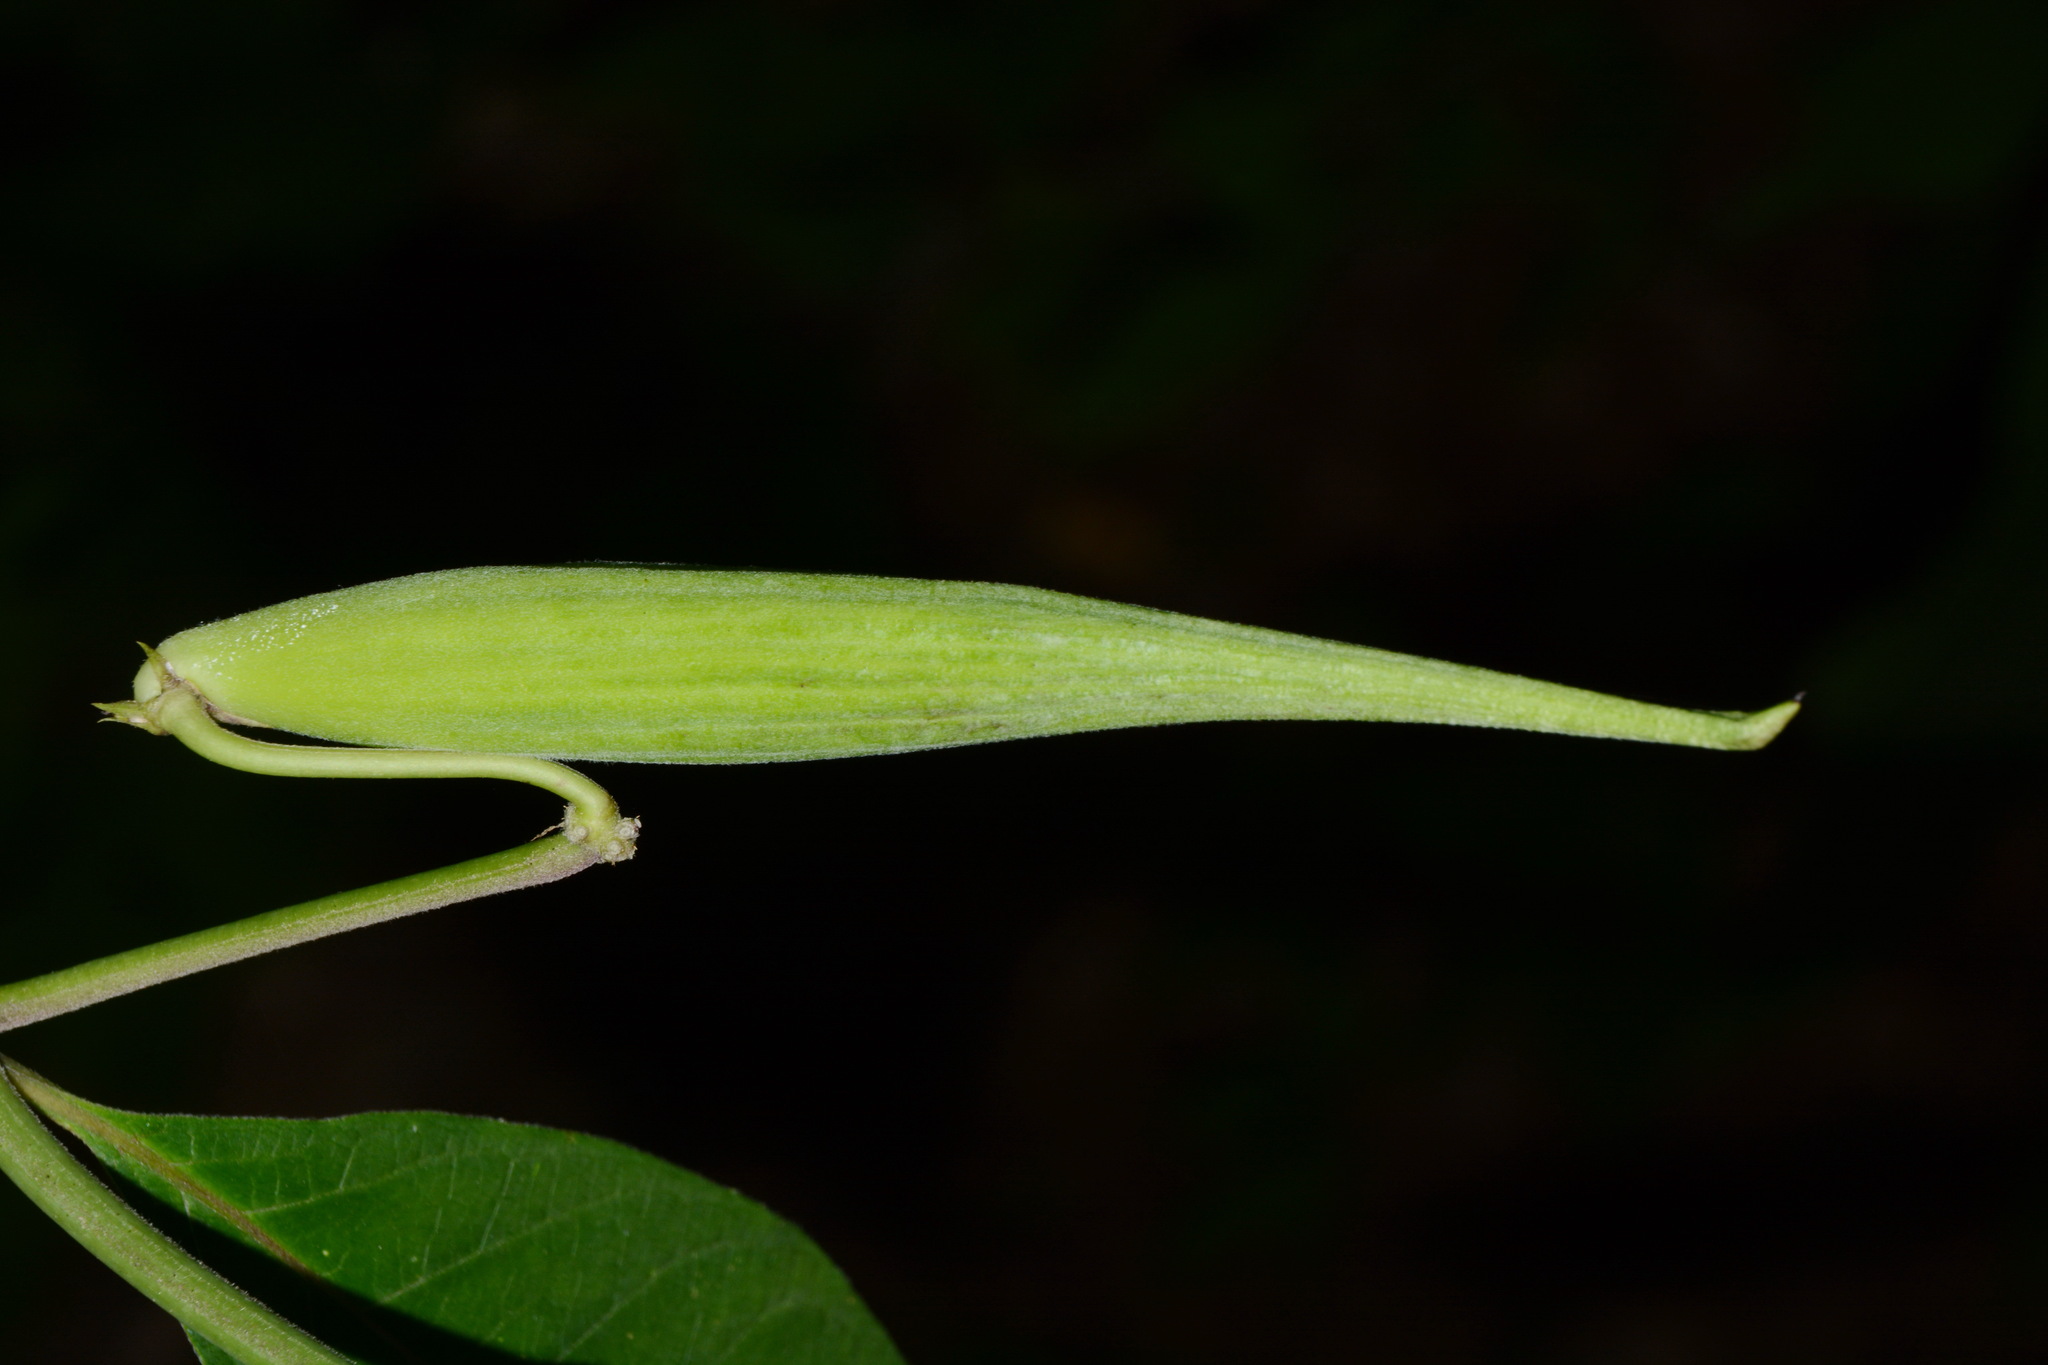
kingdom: Plantae
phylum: Tracheophyta
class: Magnoliopsida
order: Gentianales
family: Apocynaceae
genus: Asclepias
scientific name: Asclepias exaltata
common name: Poke milkweed
